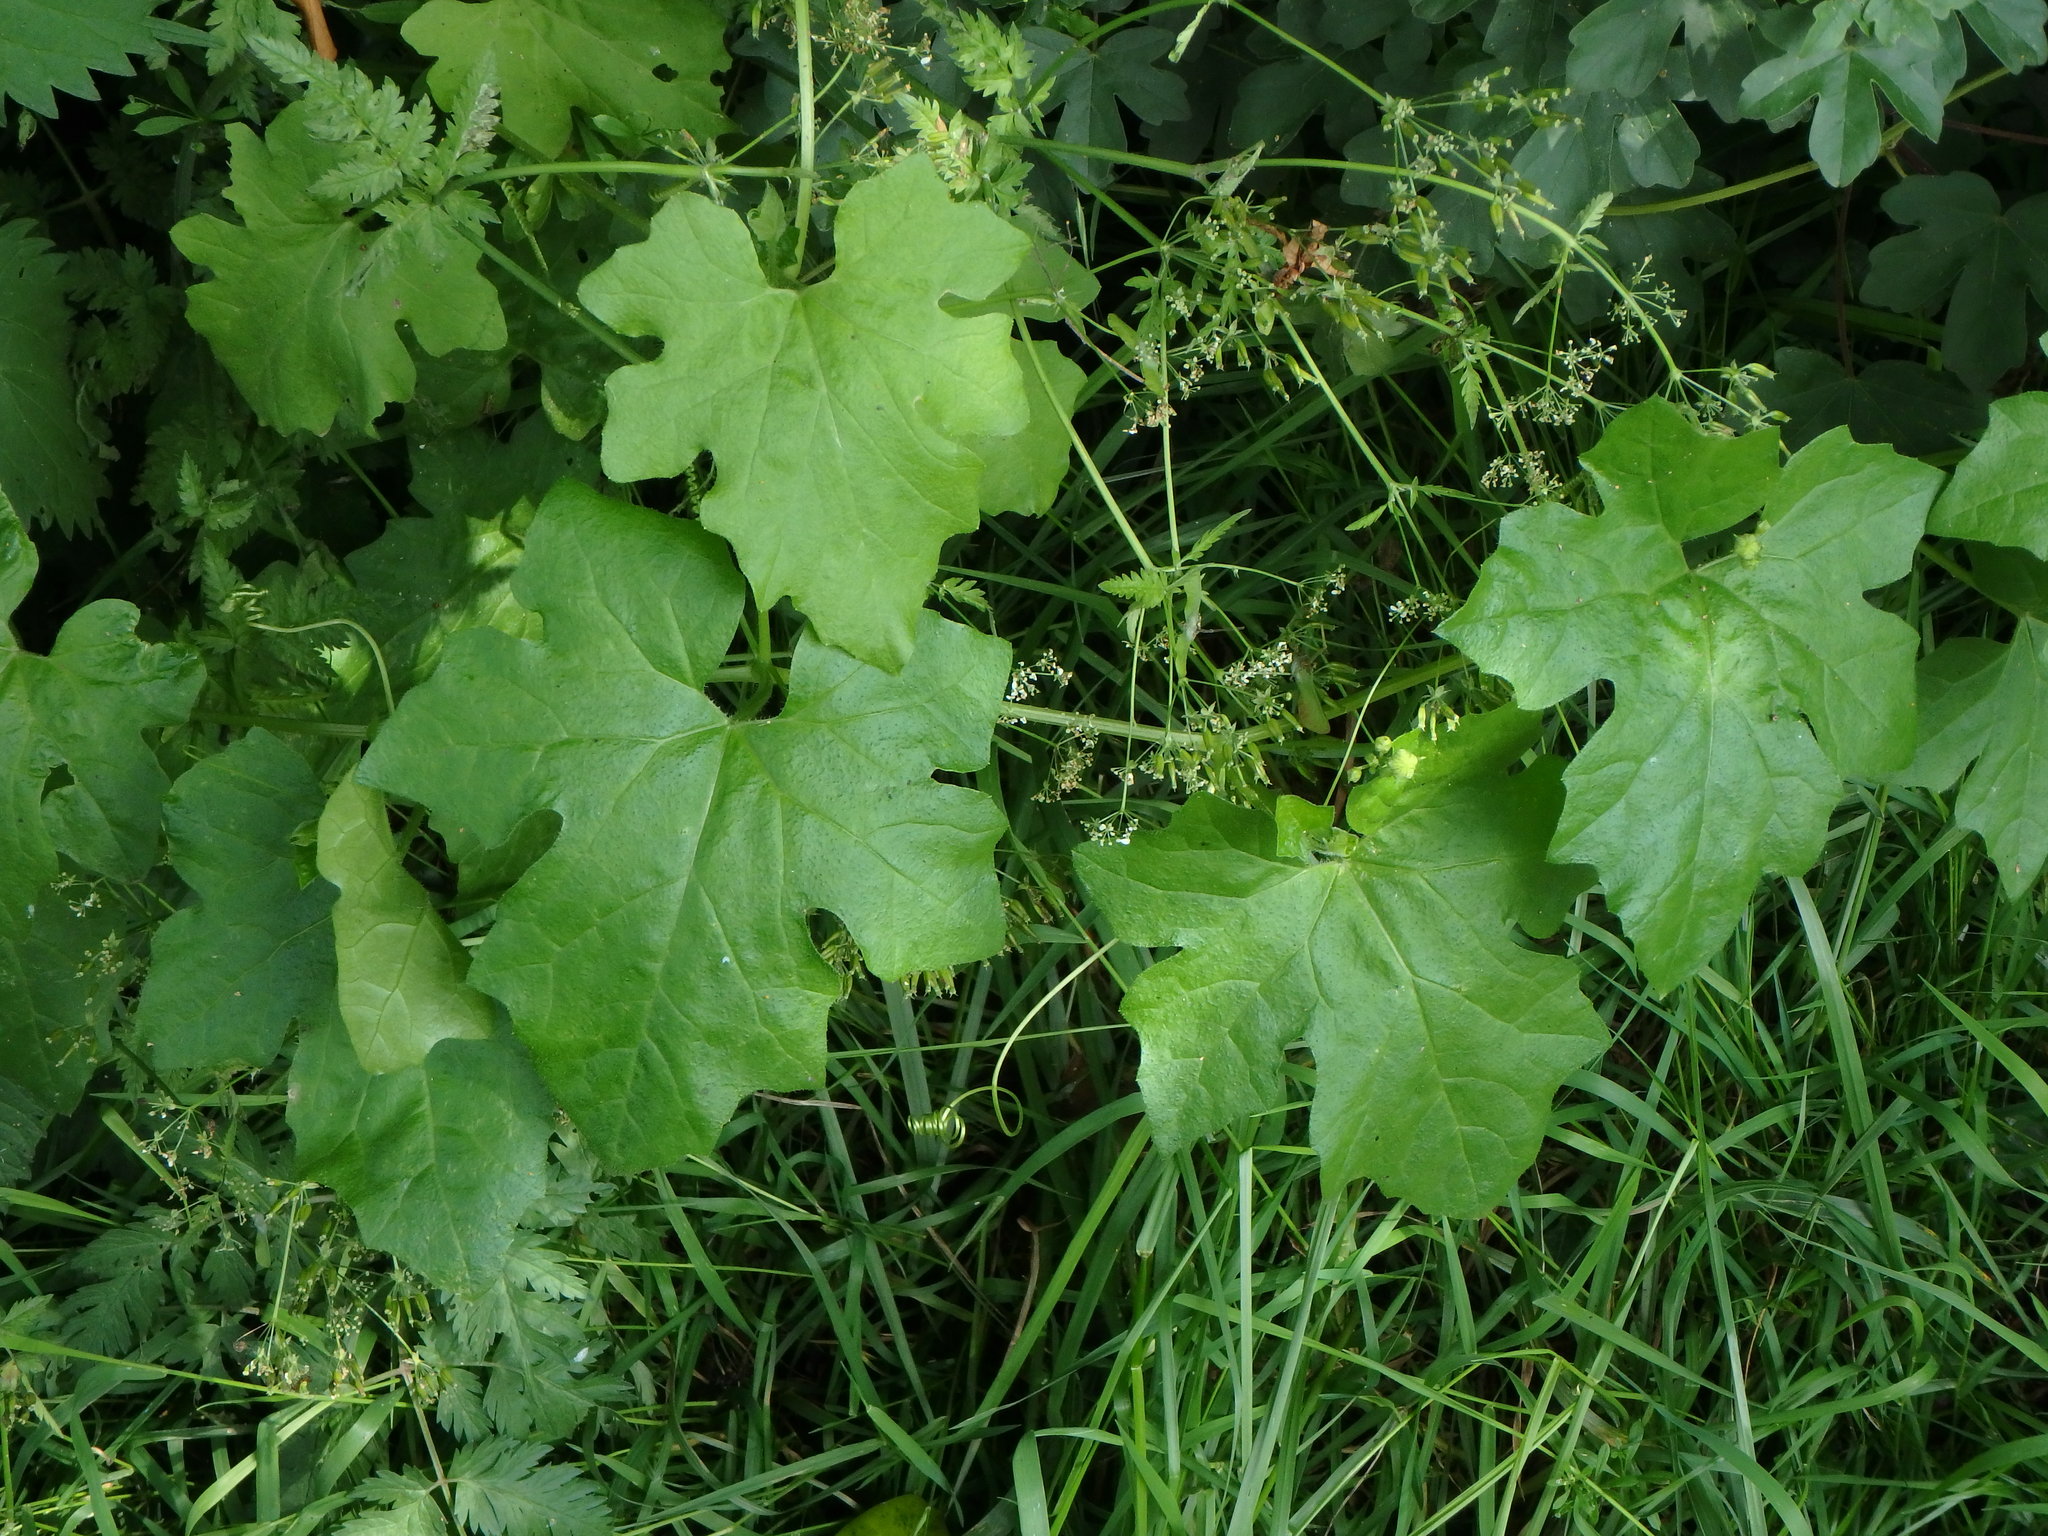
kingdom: Plantae
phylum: Tracheophyta
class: Magnoliopsida
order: Cucurbitales
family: Cucurbitaceae
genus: Bryonia
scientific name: Bryonia cretica
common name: Cretan bryony
